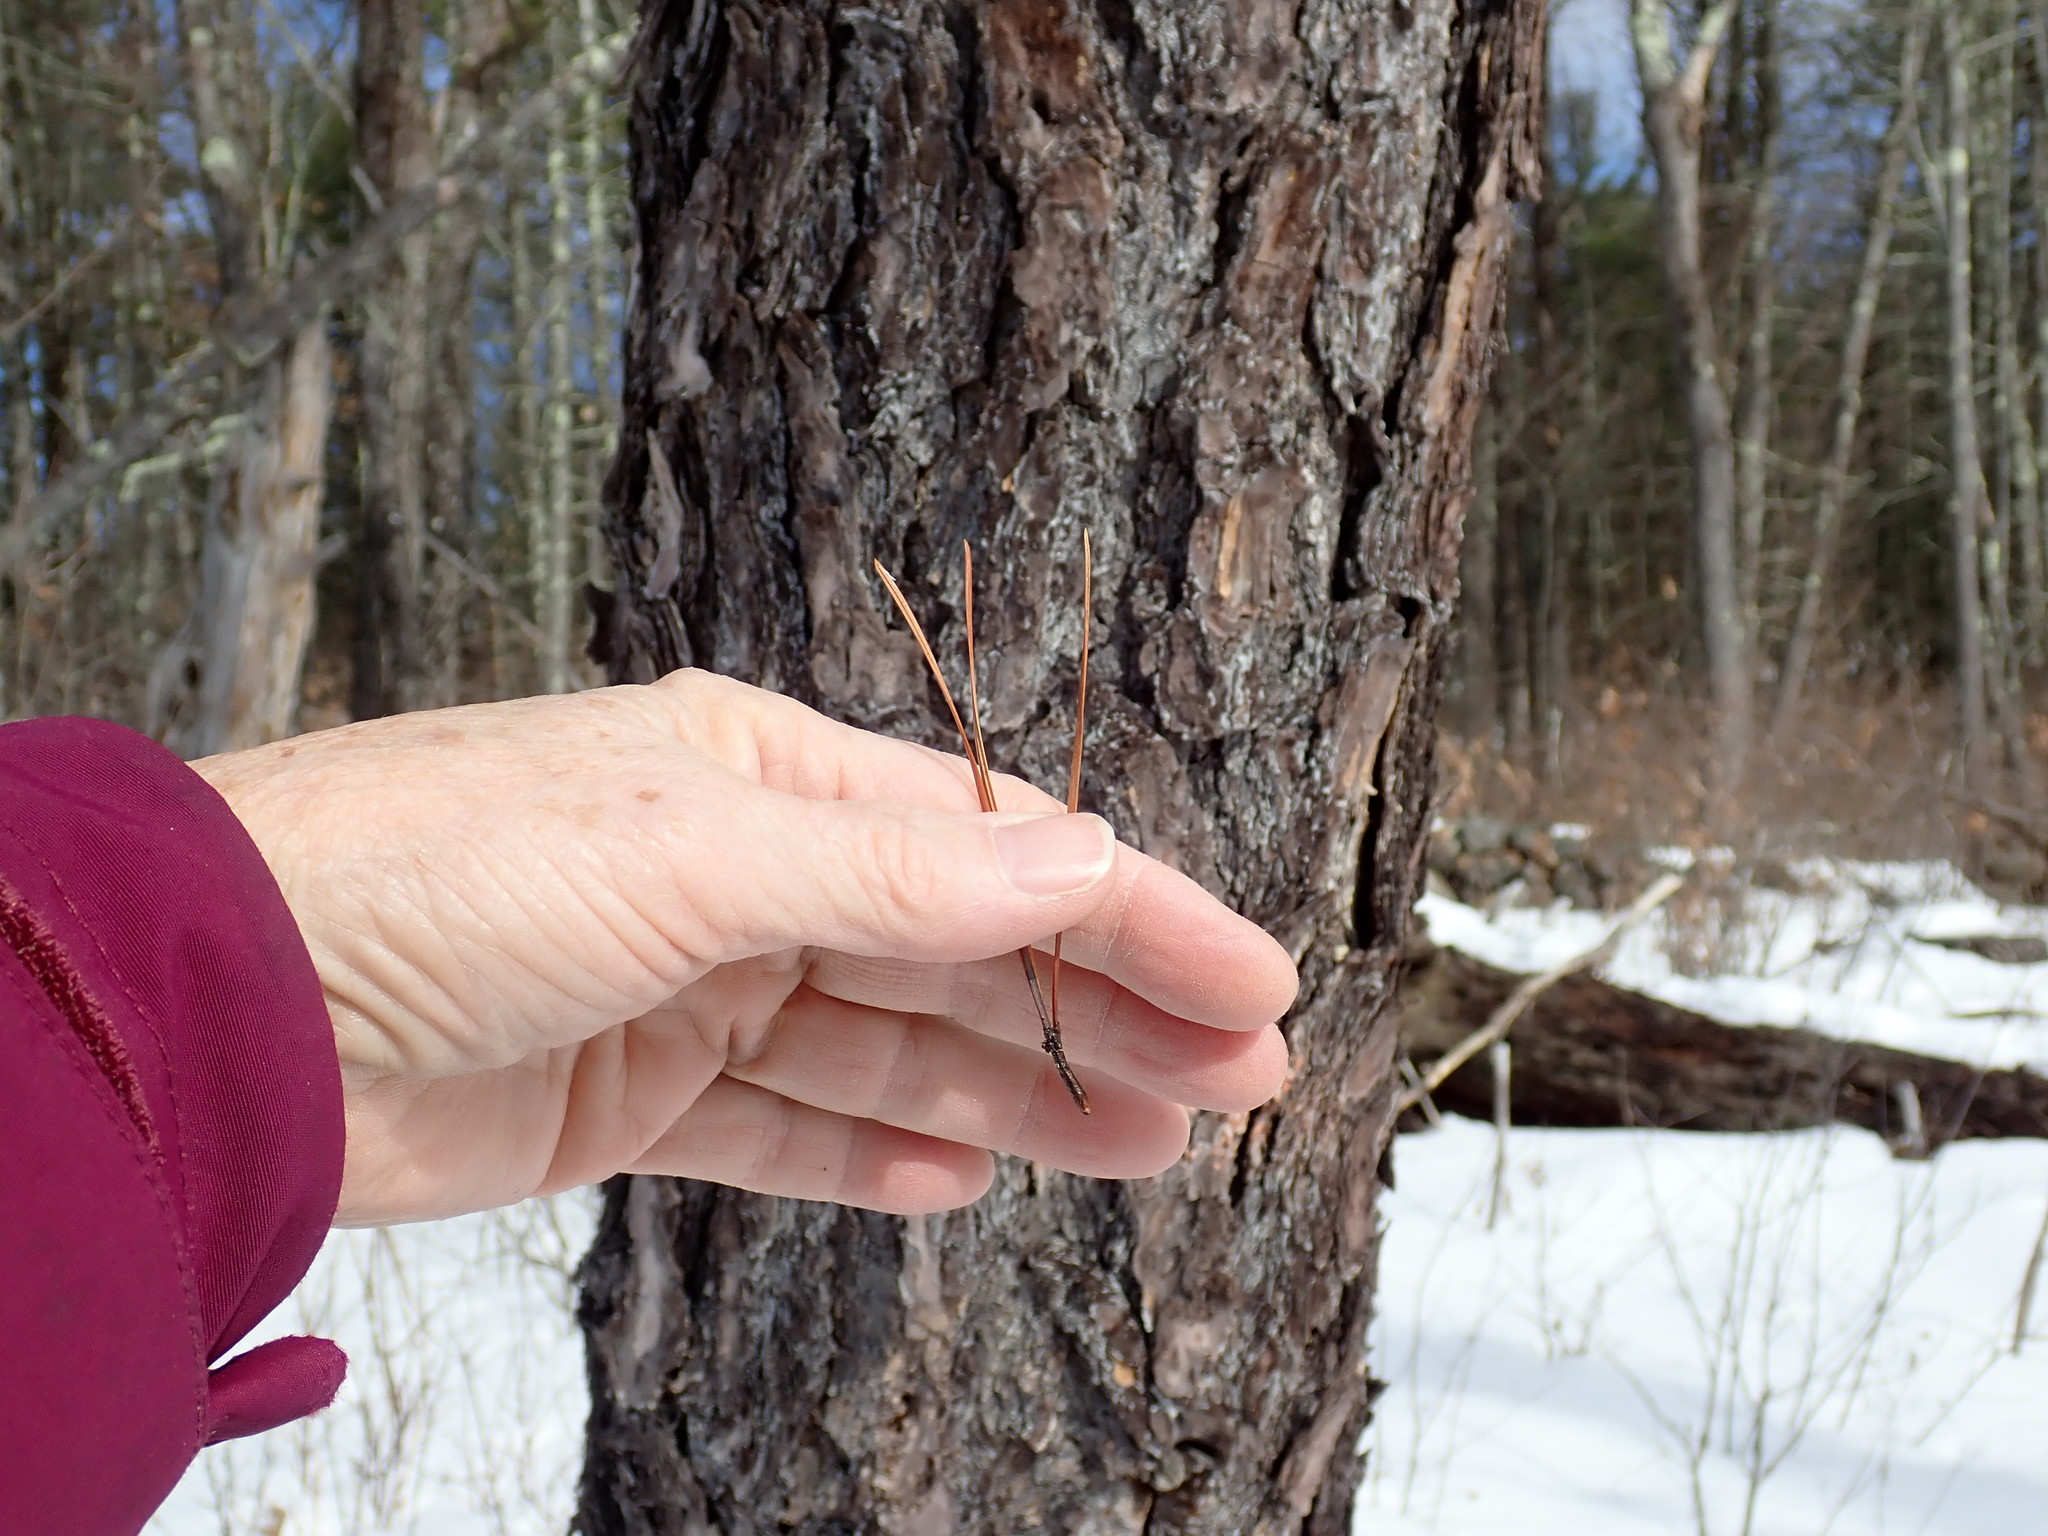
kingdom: Plantae
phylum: Tracheophyta
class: Pinopsida
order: Pinales
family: Pinaceae
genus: Pinus
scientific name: Pinus rigida
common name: Pitch pine
